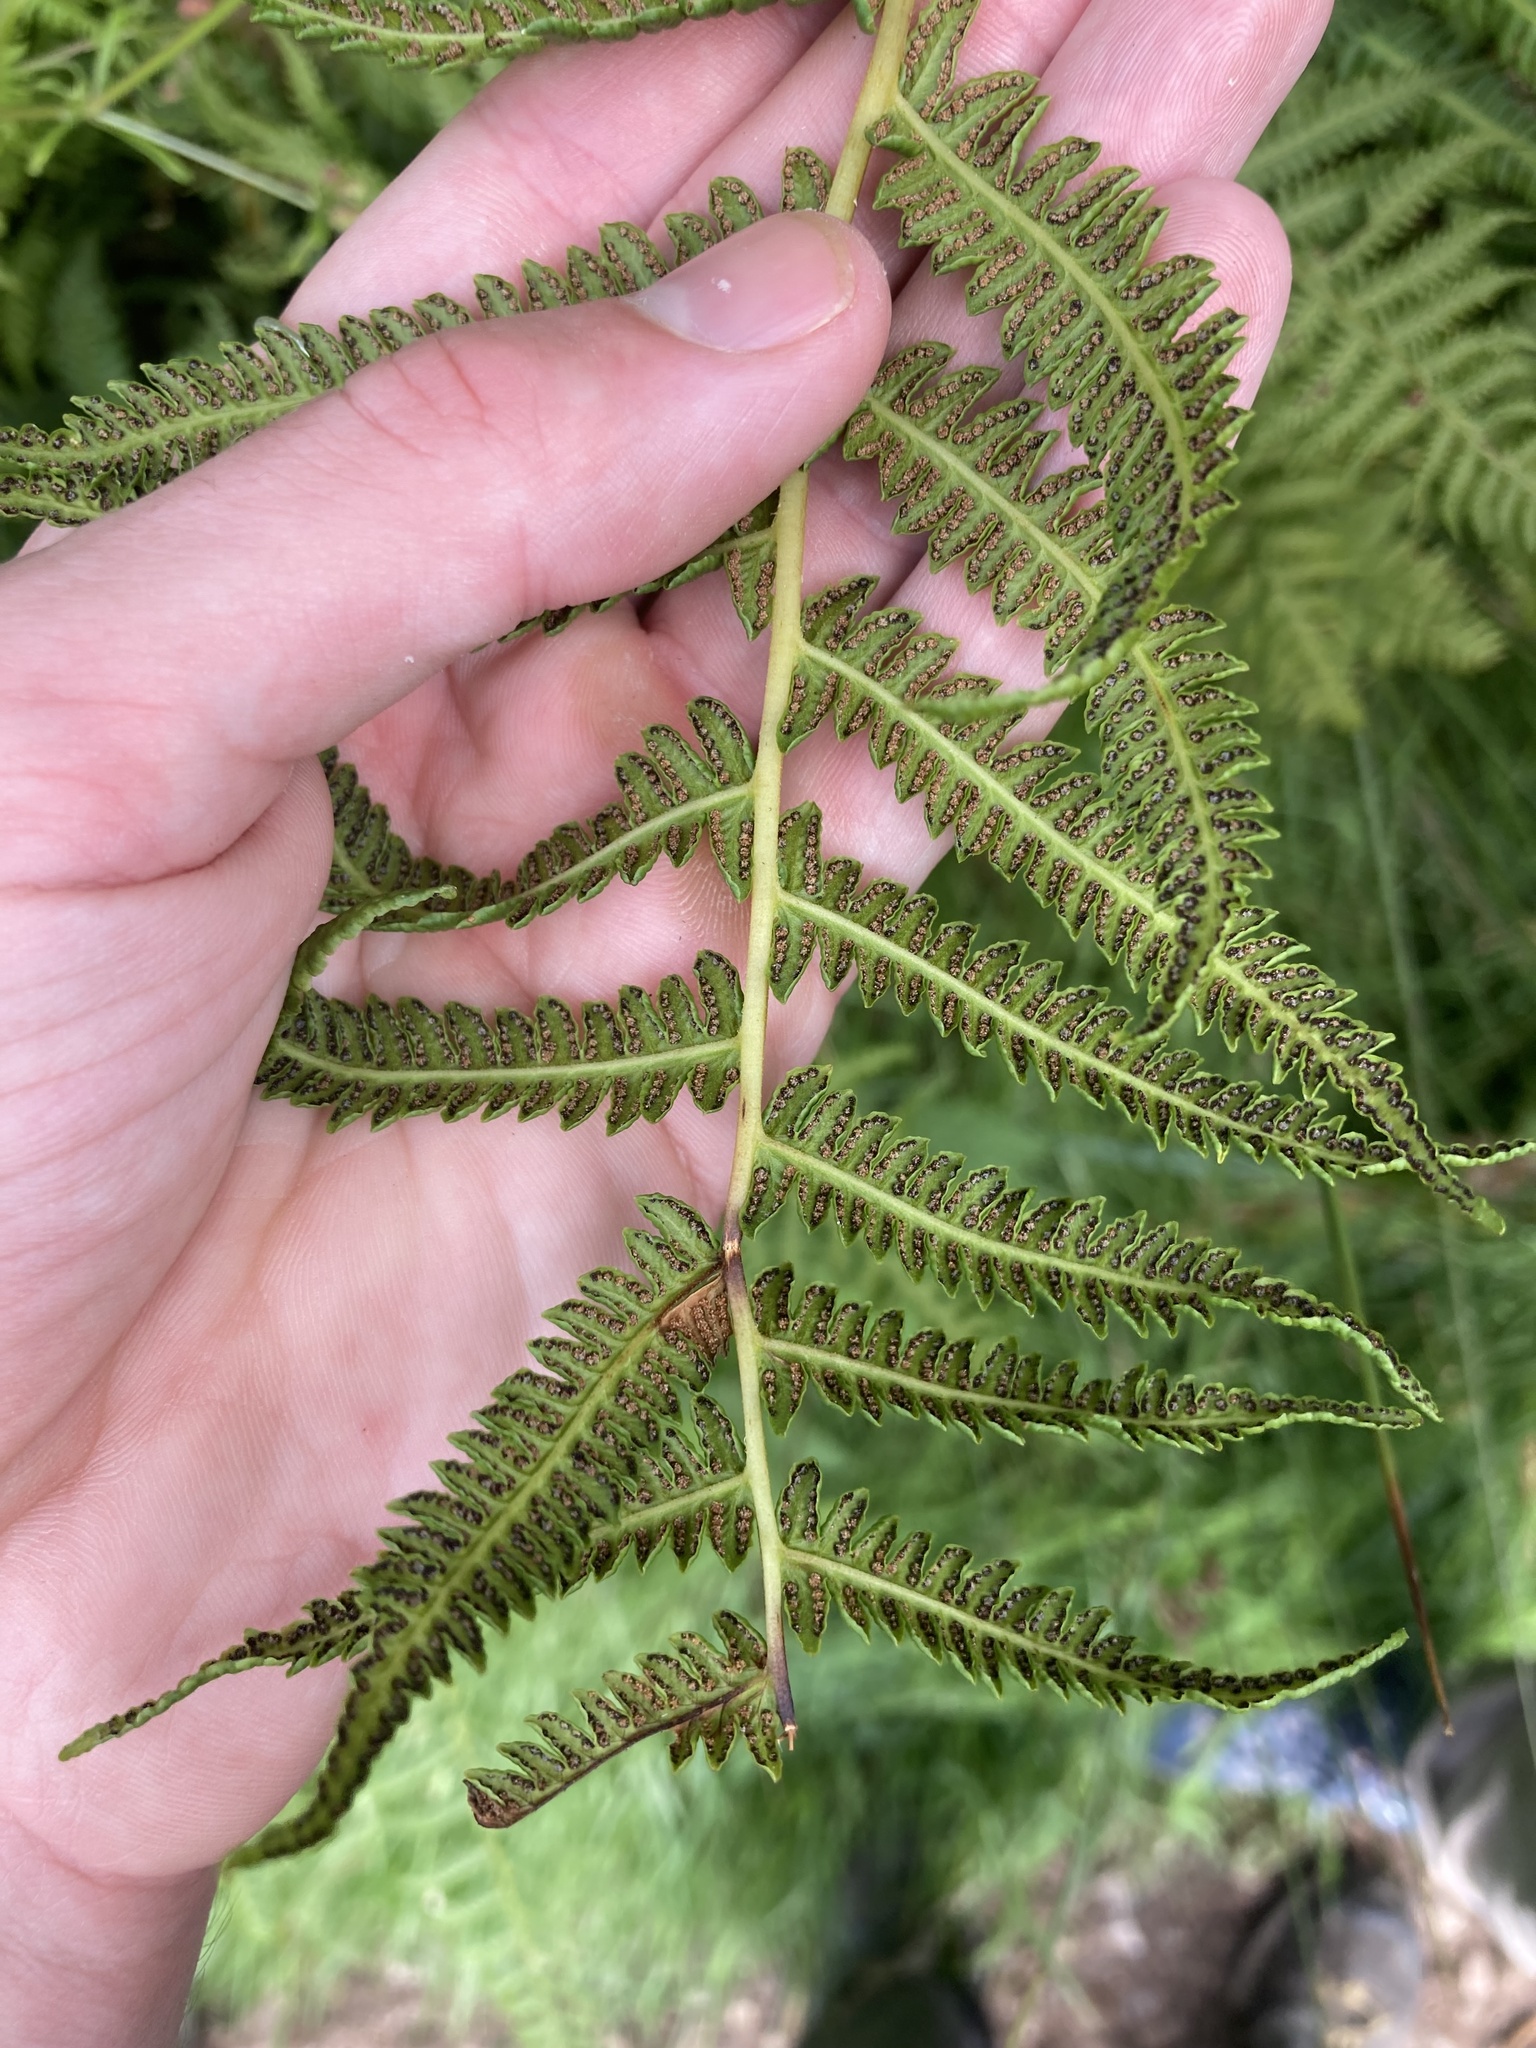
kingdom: Plantae
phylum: Tracheophyta
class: Polypodiopsida
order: Polypodiales
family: Thelypteridaceae
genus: Oreopteris
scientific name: Oreopteris limbosperma
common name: Lemon-scented fern
